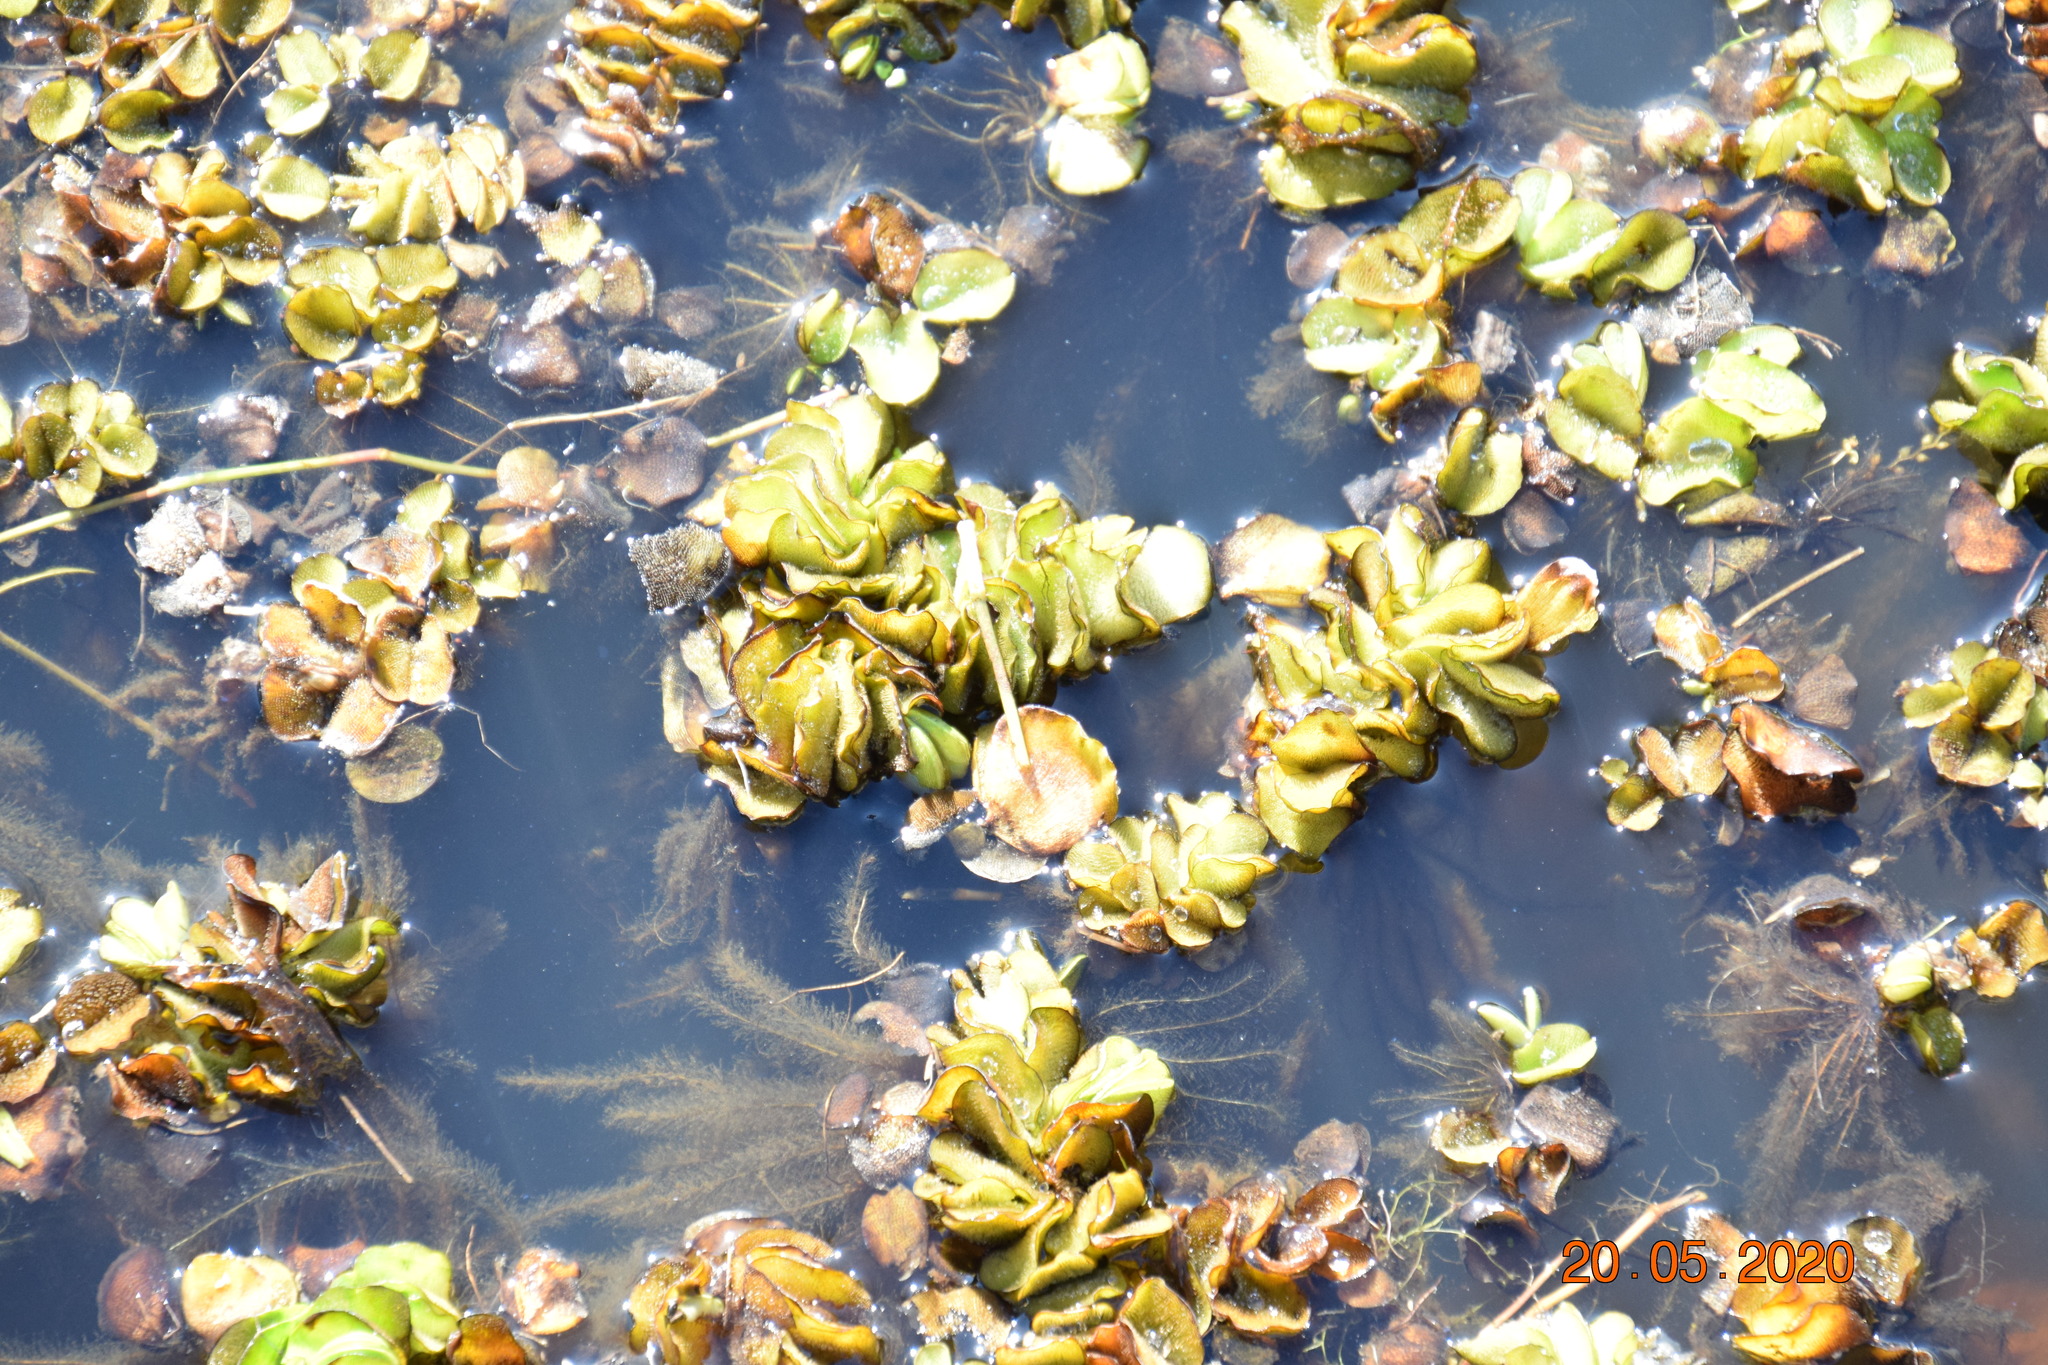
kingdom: Plantae
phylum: Tracheophyta
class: Polypodiopsida
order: Salviniales
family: Salviniaceae
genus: Salvinia
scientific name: Salvinia molesta
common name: Kariba weed
